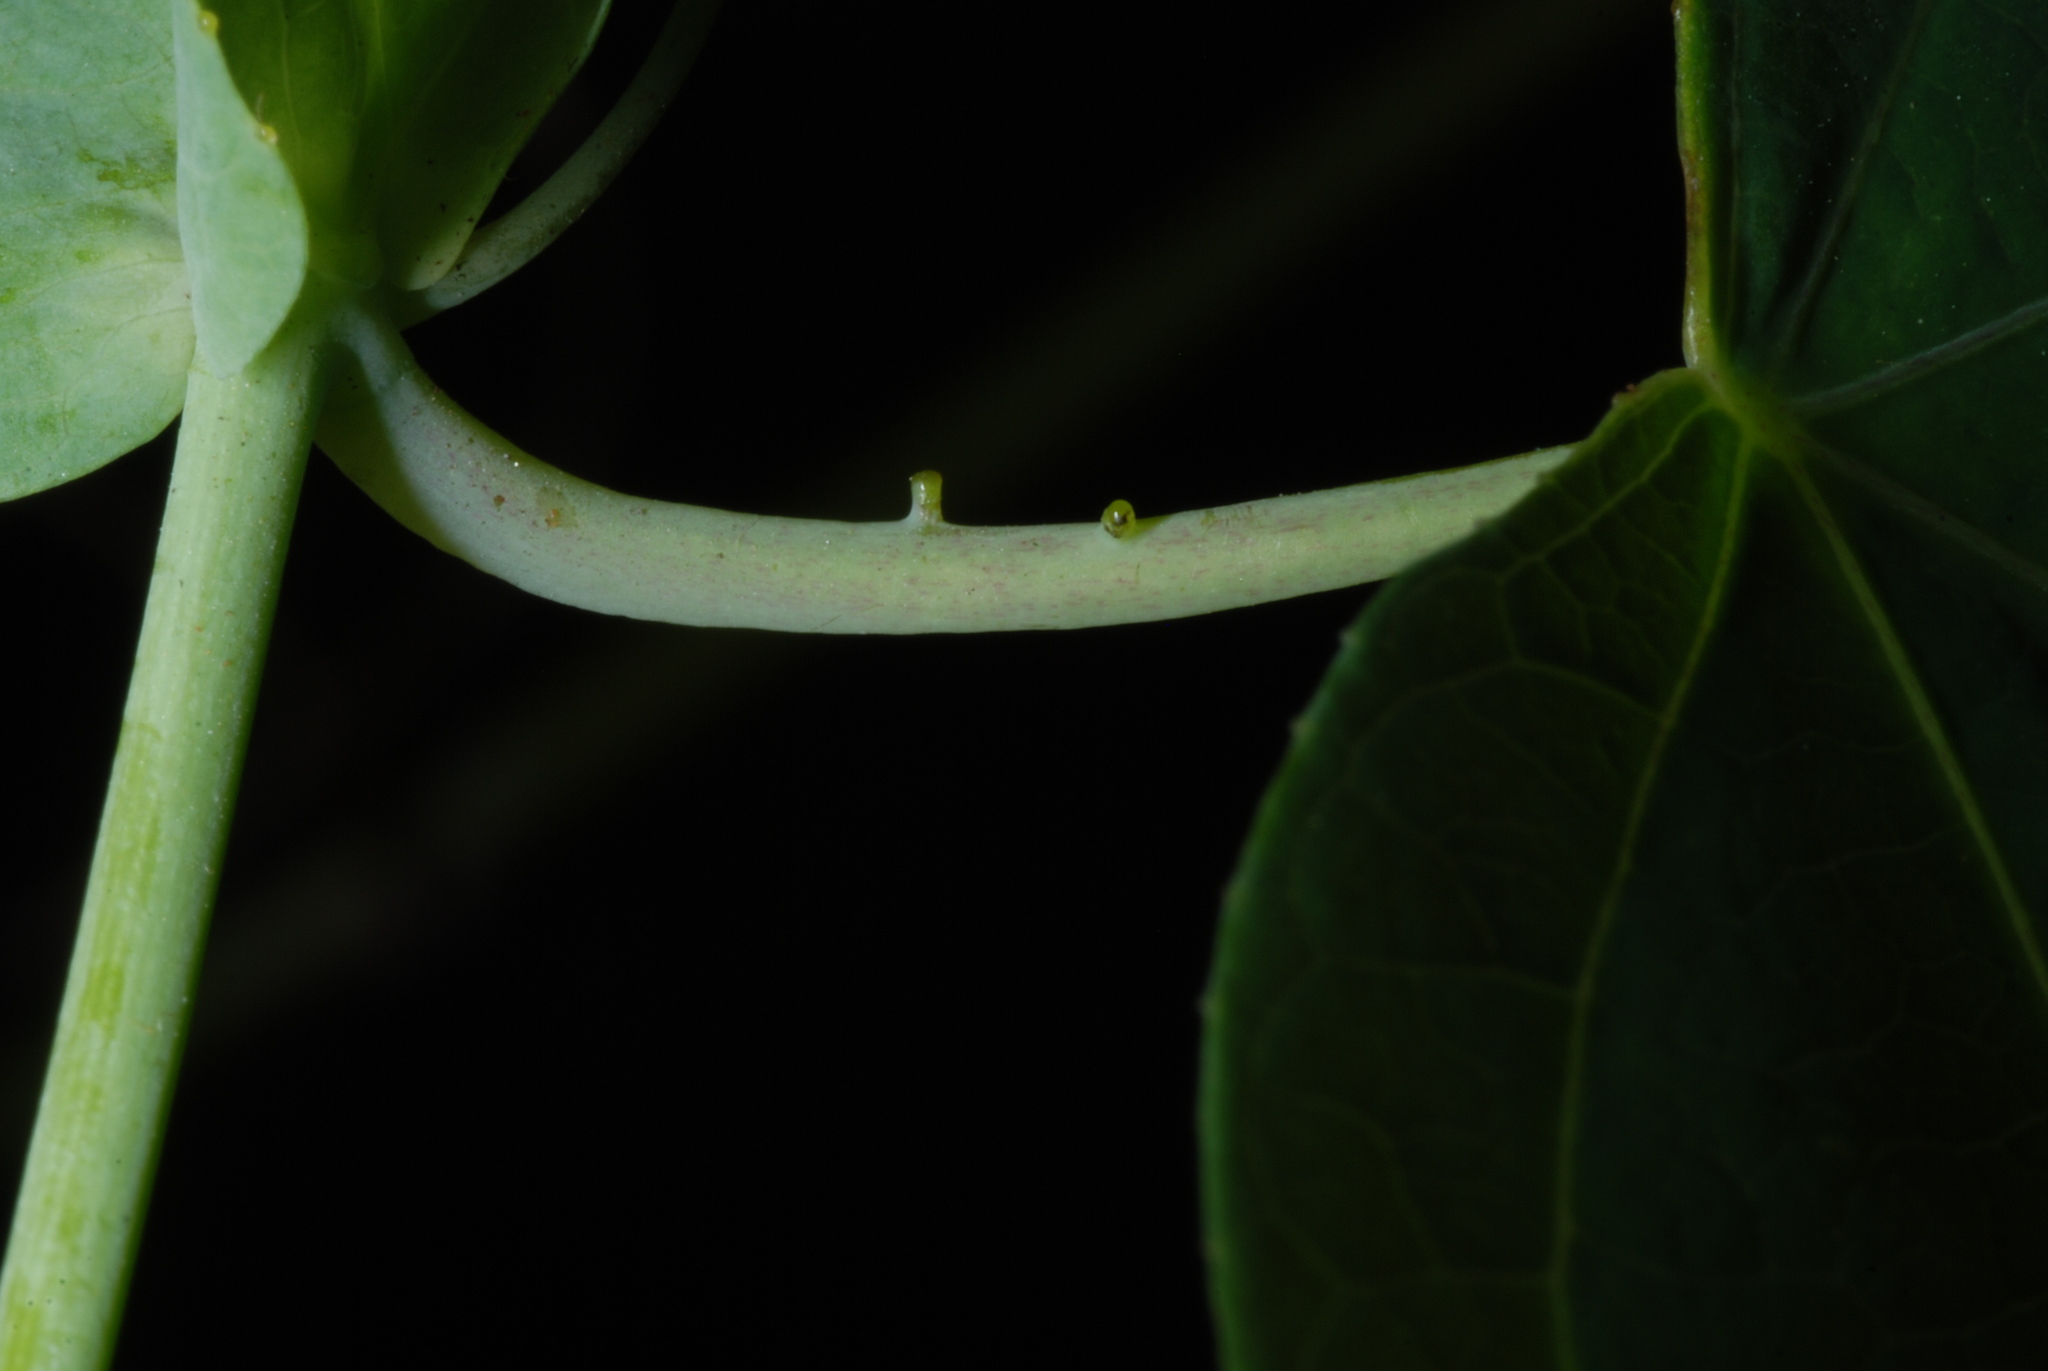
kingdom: Plantae
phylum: Tracheophyta
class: Magnoliopsida
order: Malpighiales
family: Passifloraceae
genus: Passiflora
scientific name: Passiflora pallens
